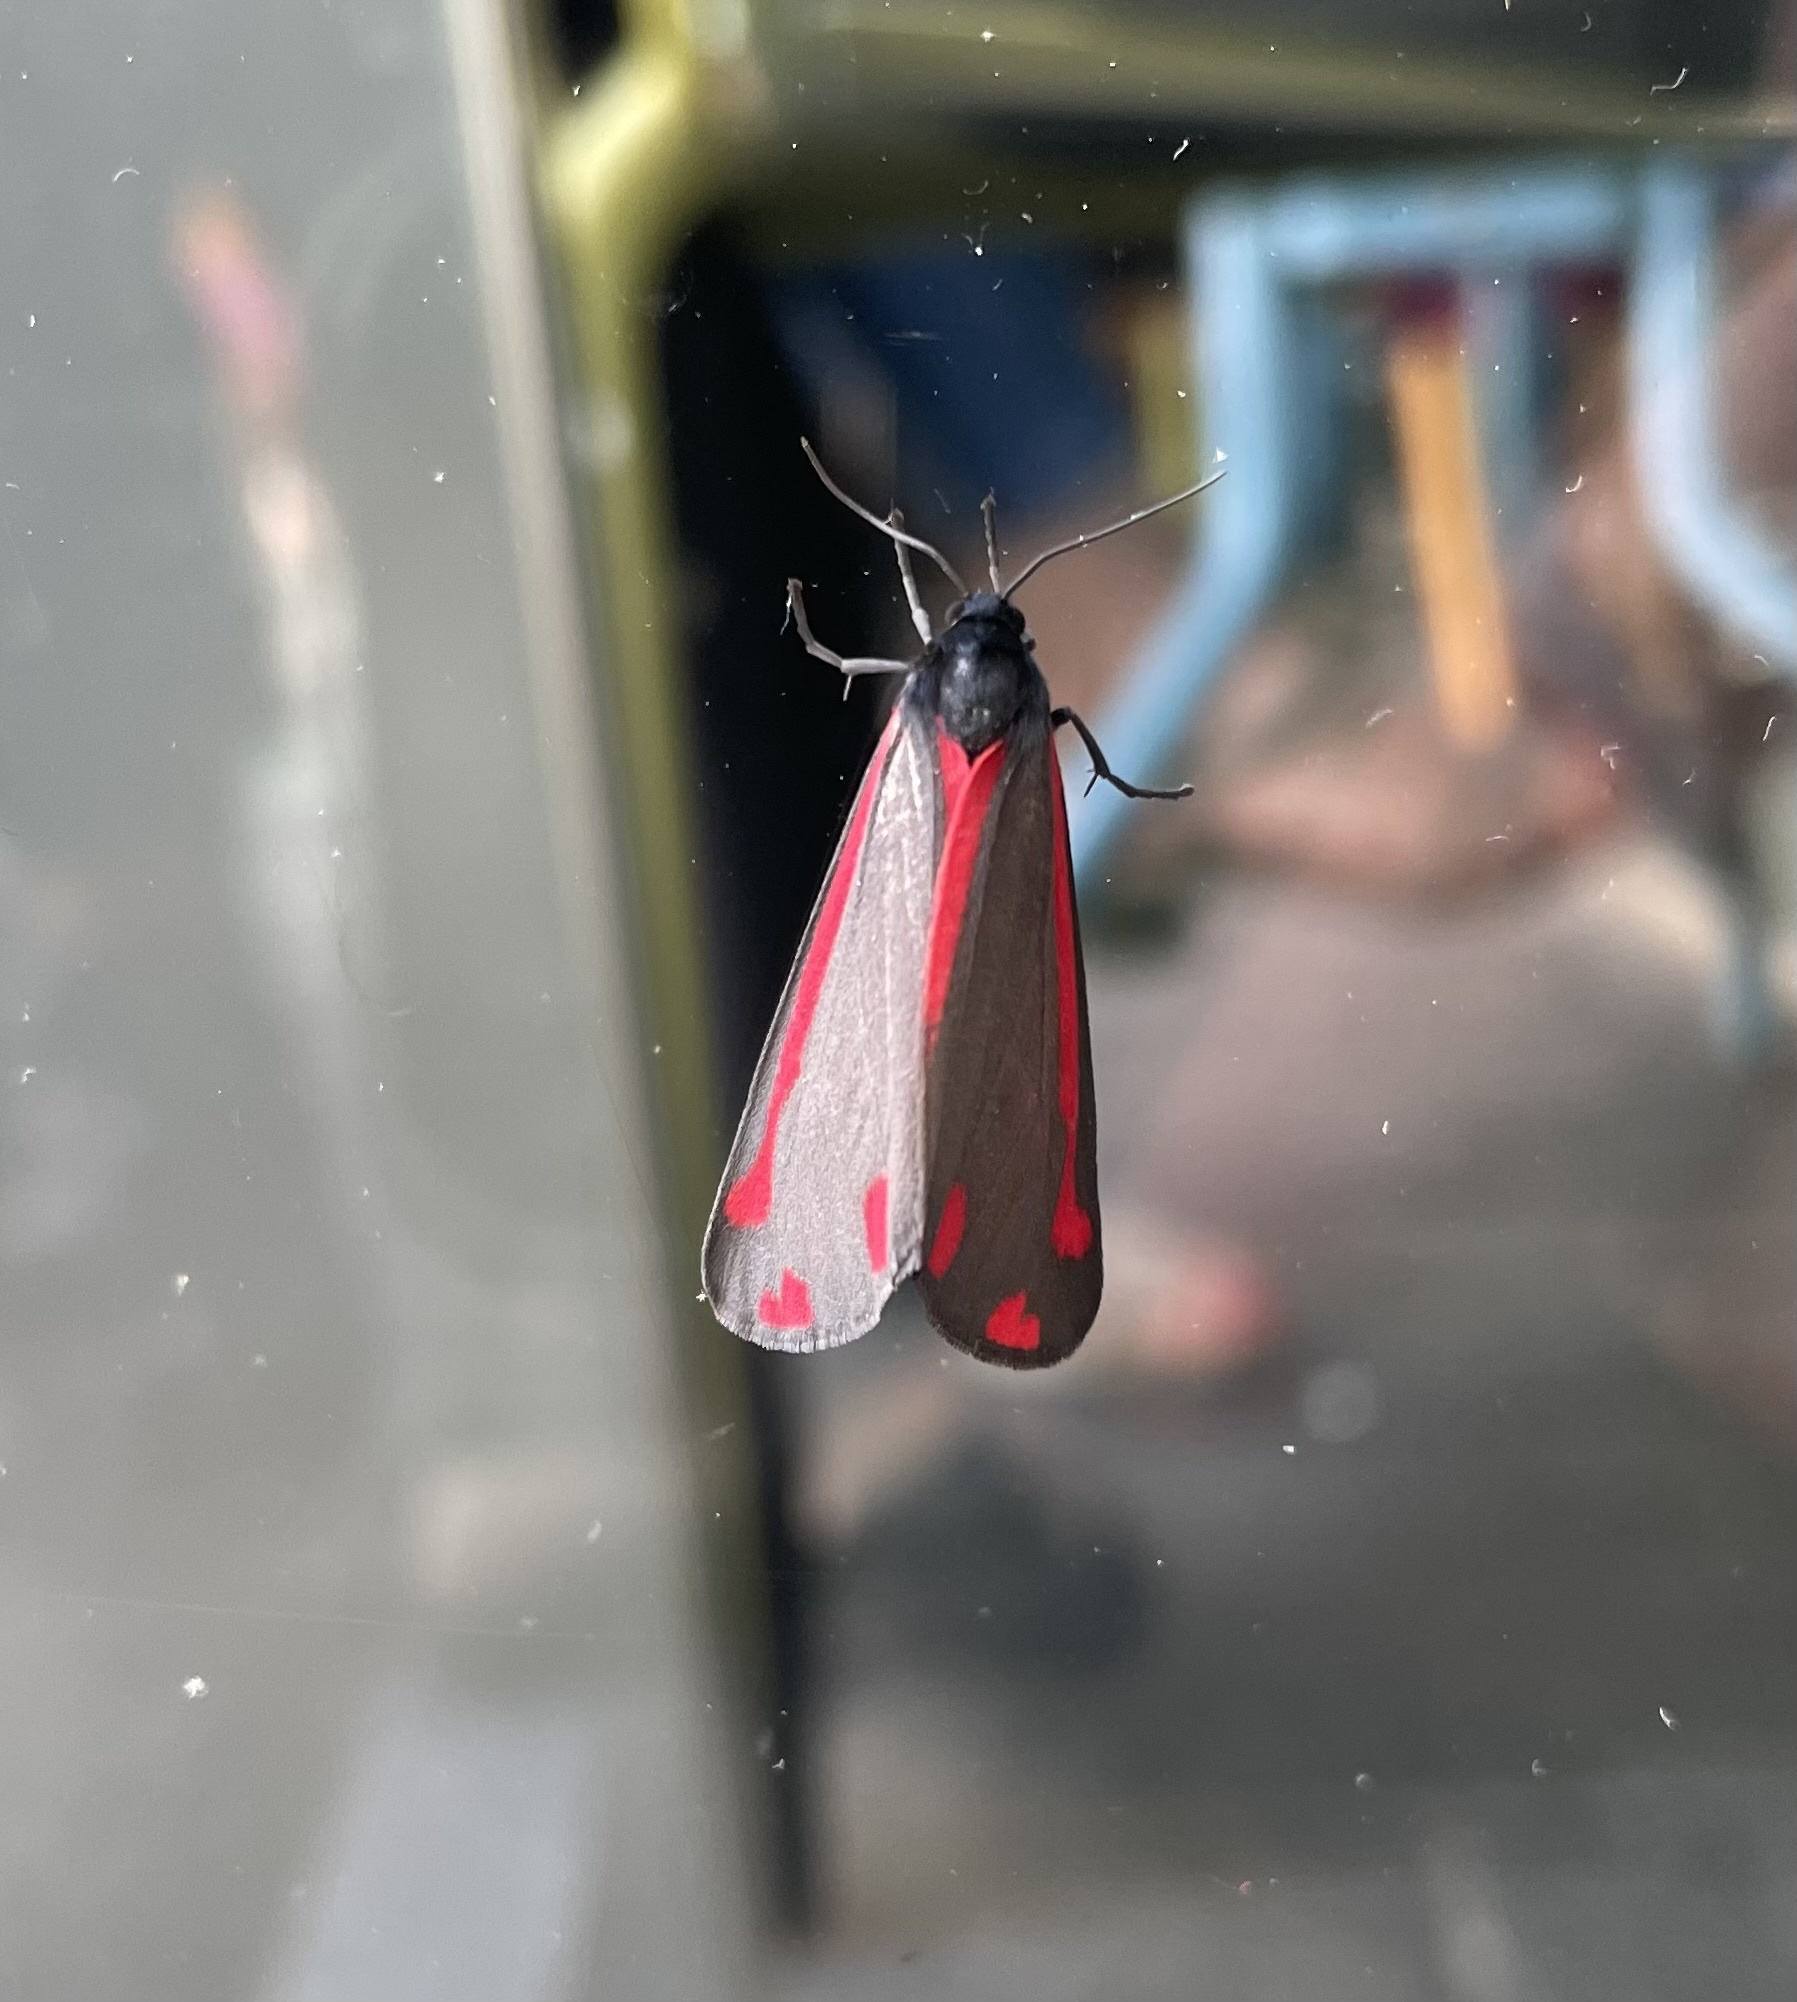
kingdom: Animalia
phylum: Arthropoda
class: Insecta
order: Lepidoptera
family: Erebidae
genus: Tyria
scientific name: Tyria jacobaeae
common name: Cinnabar
